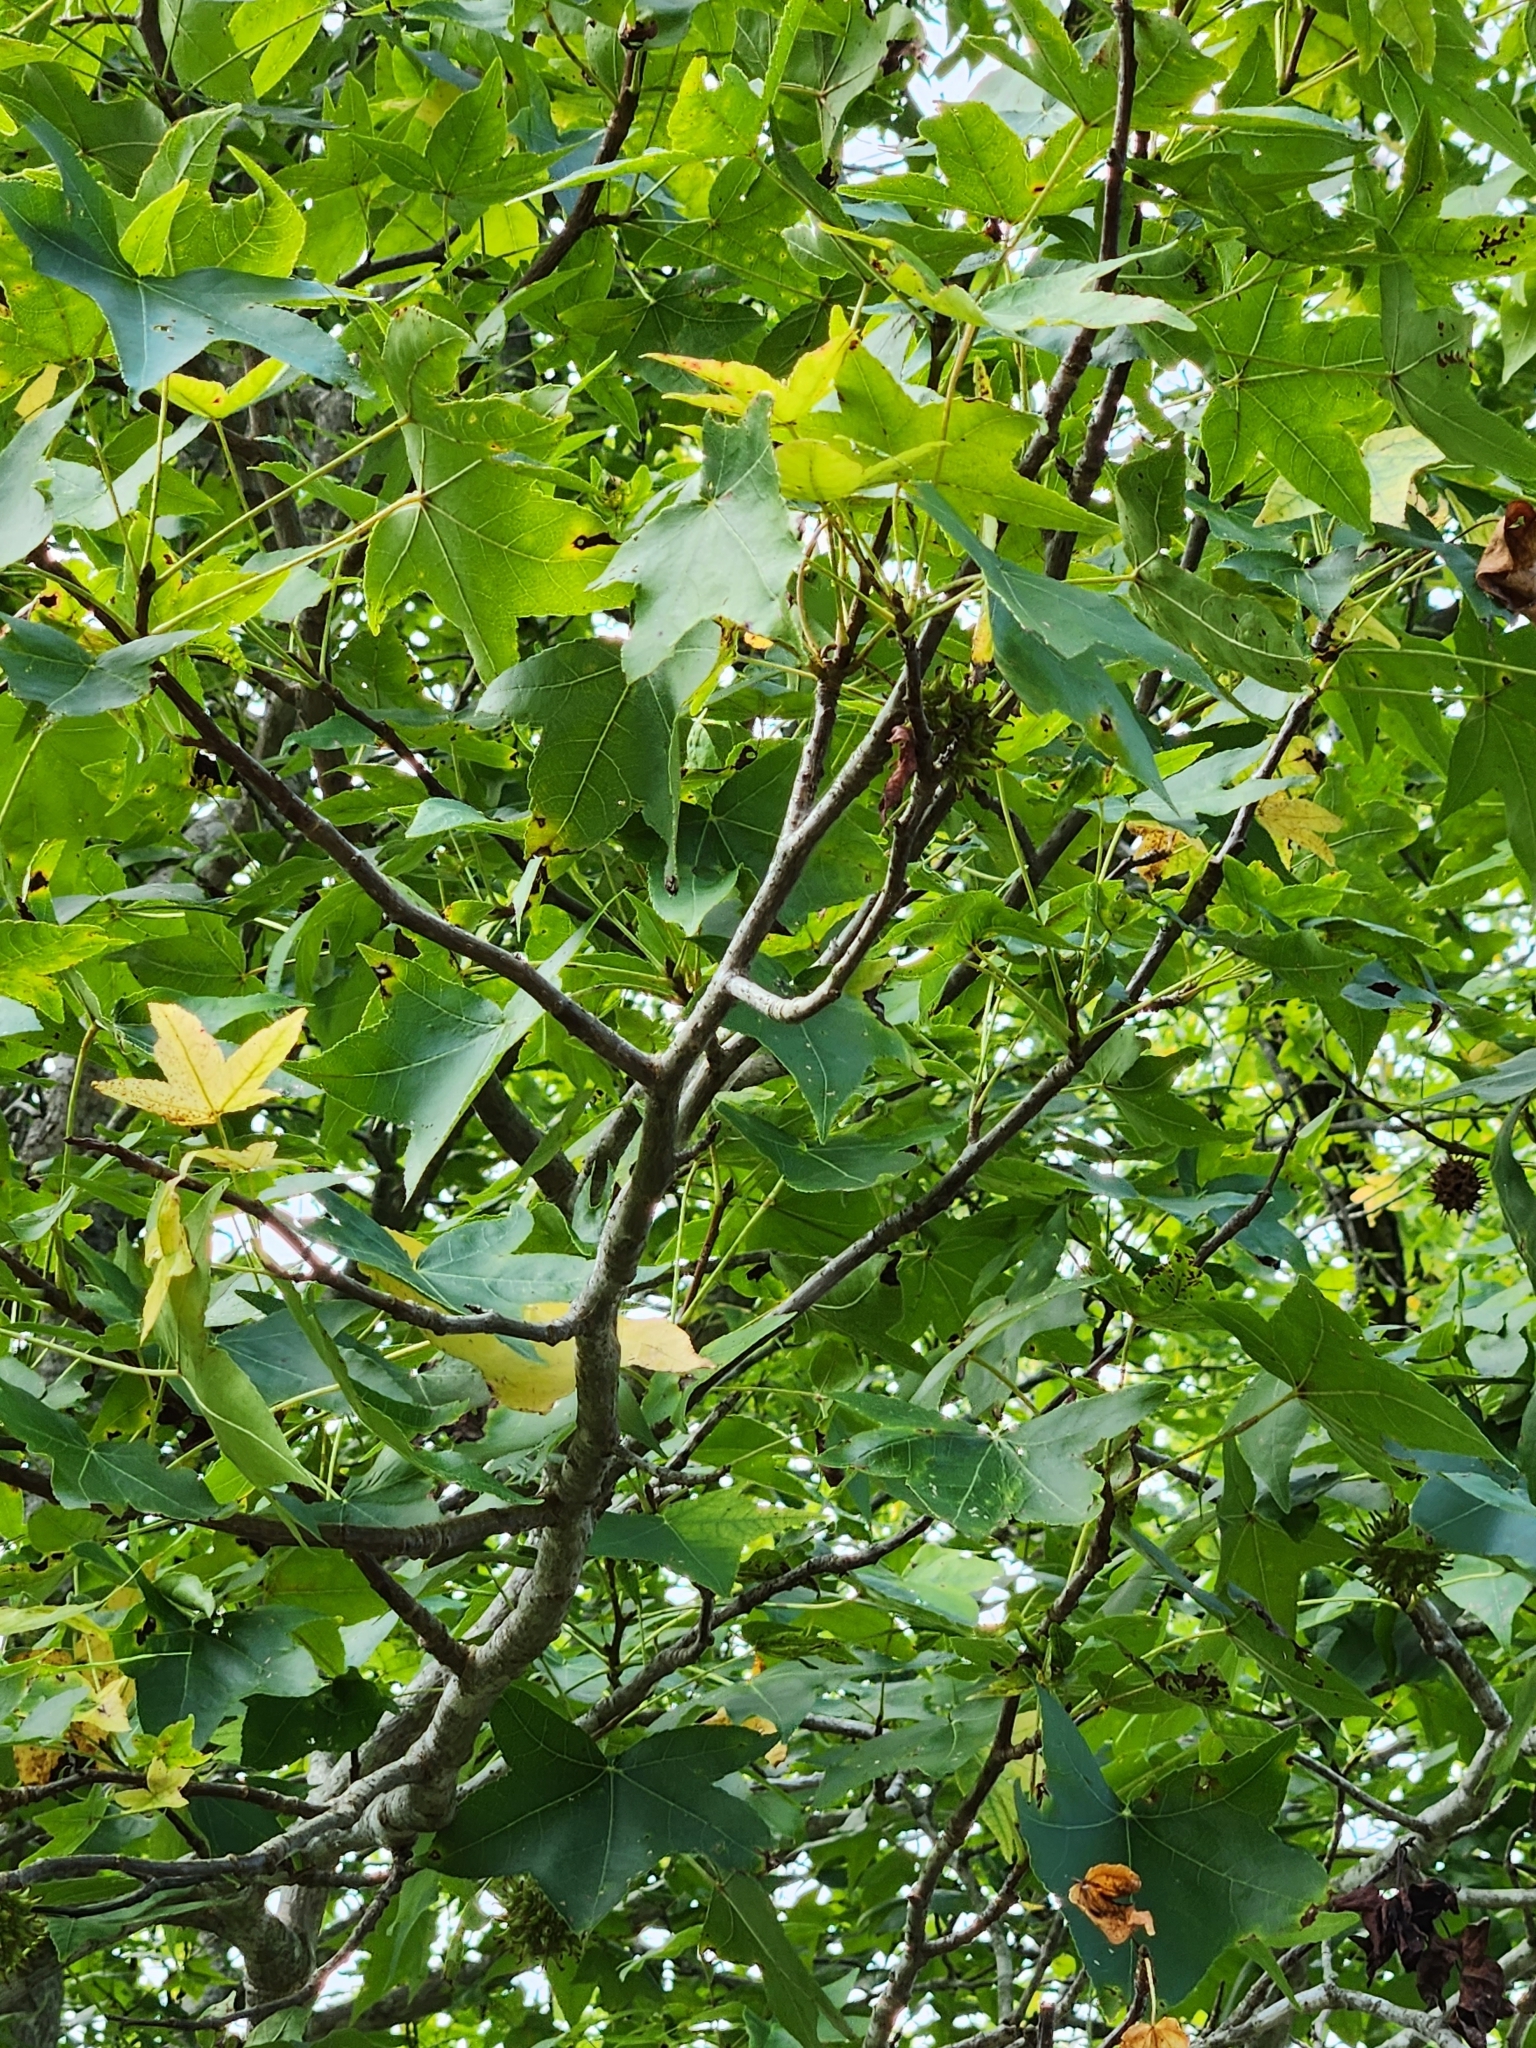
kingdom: Plantae
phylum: Tracheophyta
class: Magnoliopsida
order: Saxifragales
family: Altingiaceae
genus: Liquidambar
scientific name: Liquidambar styraciflua
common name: Sweet gum
